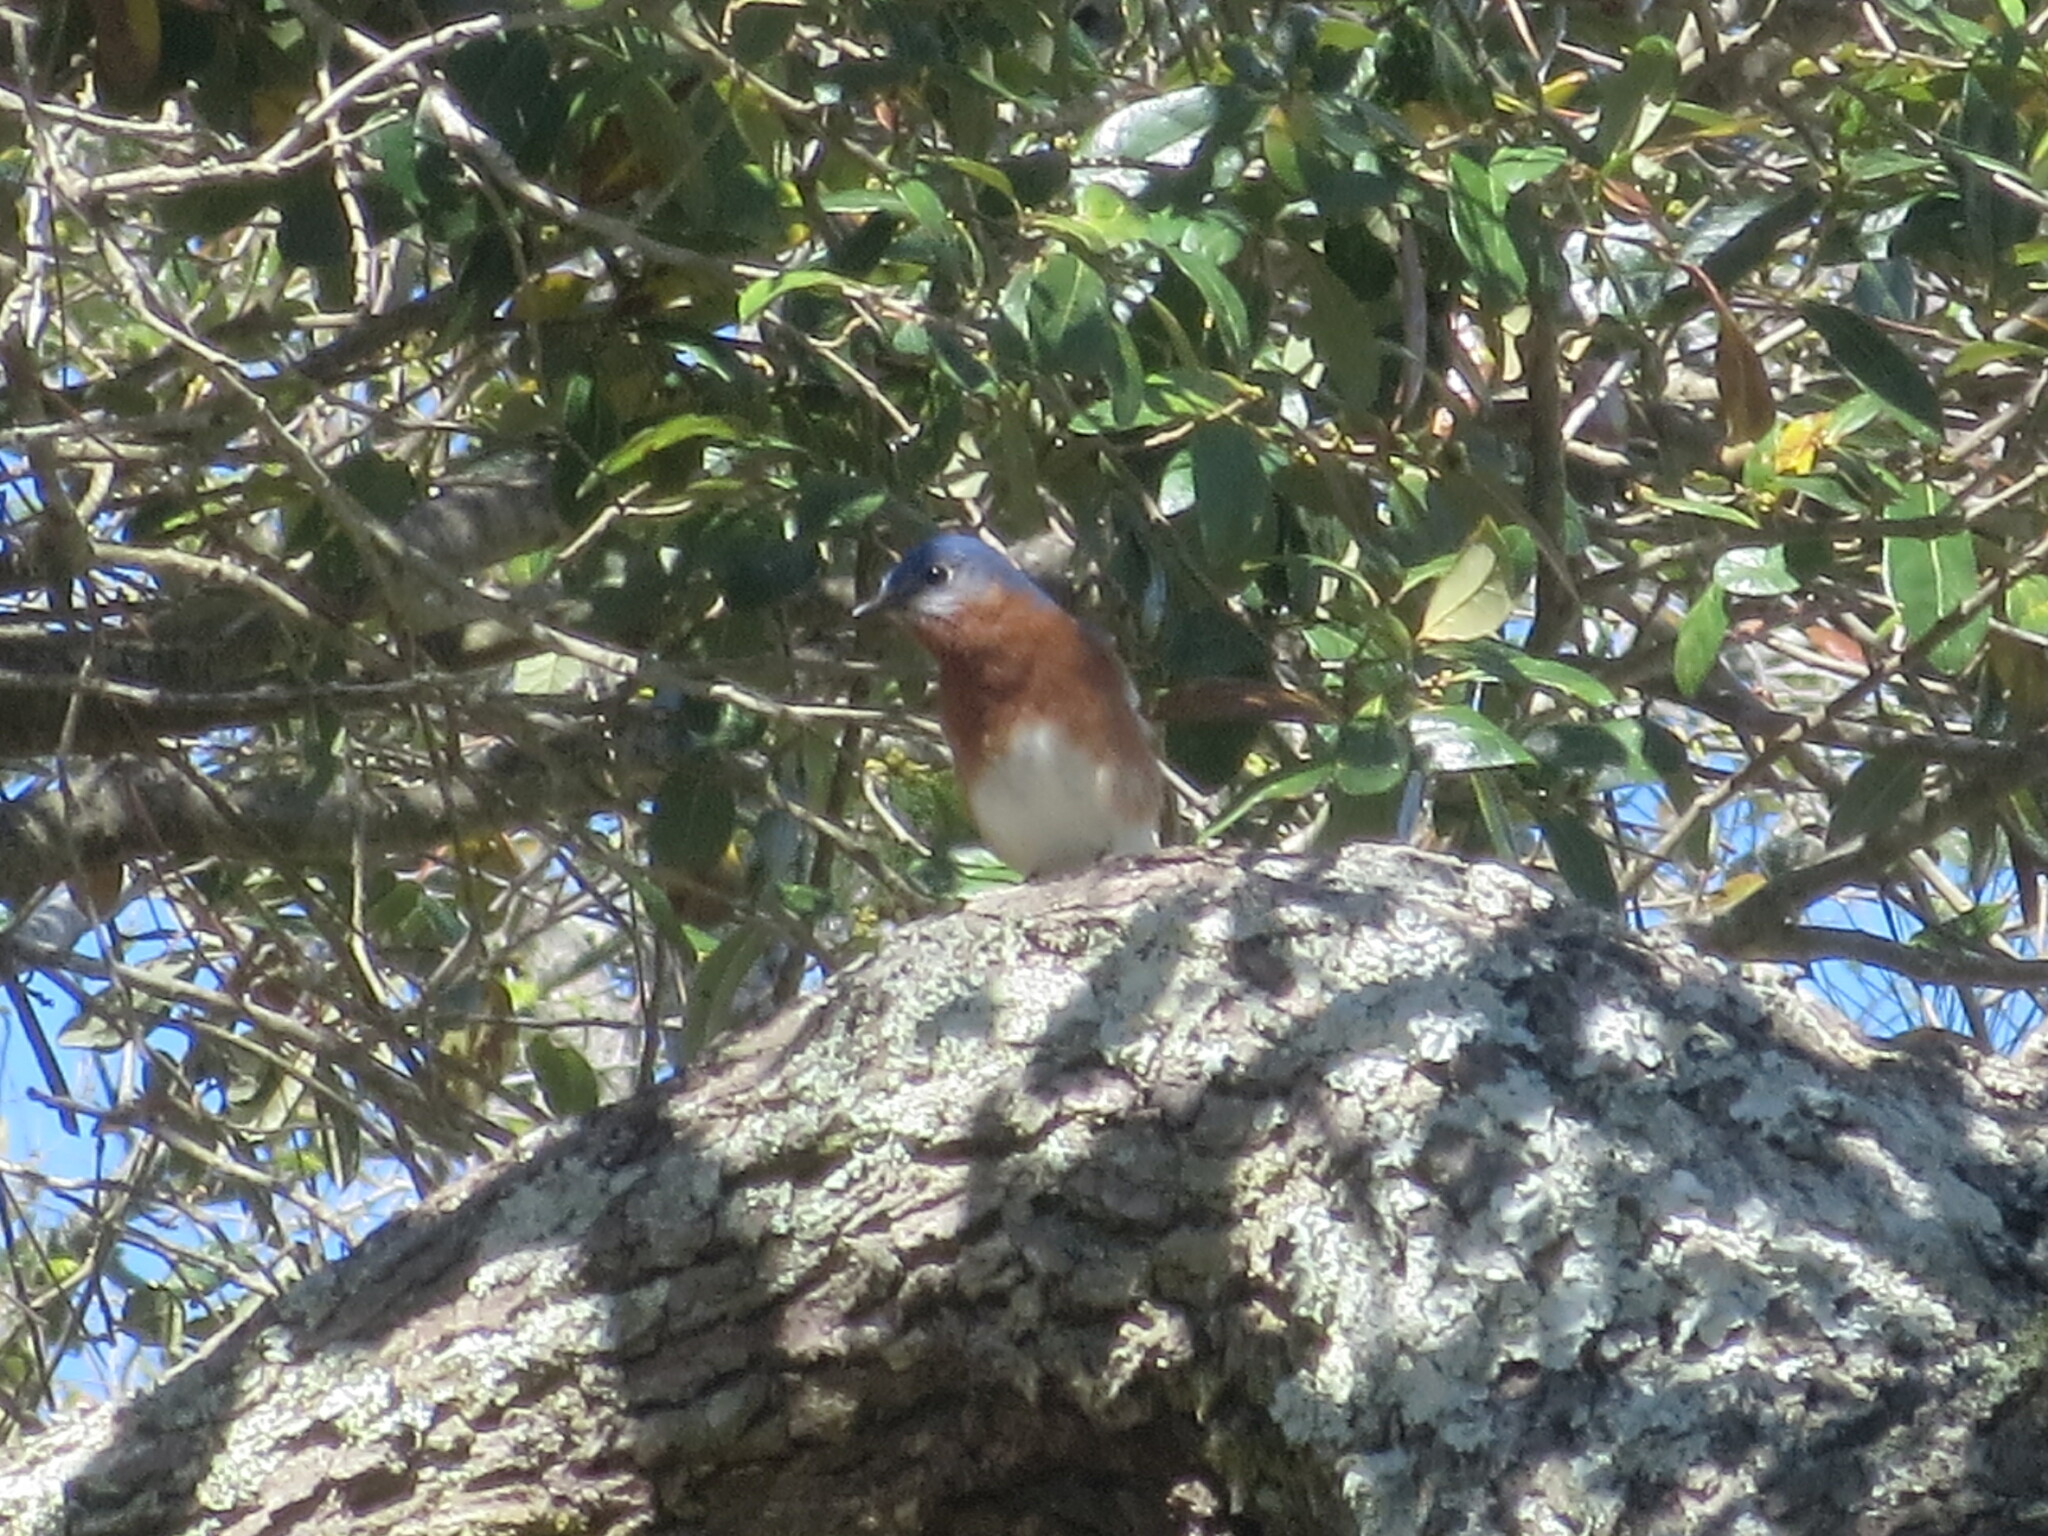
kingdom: Animalia
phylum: Chordata
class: Aves
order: Passeriformes
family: Turdidae
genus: Sialia
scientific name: Sialia sialis
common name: Eastern bluebird
